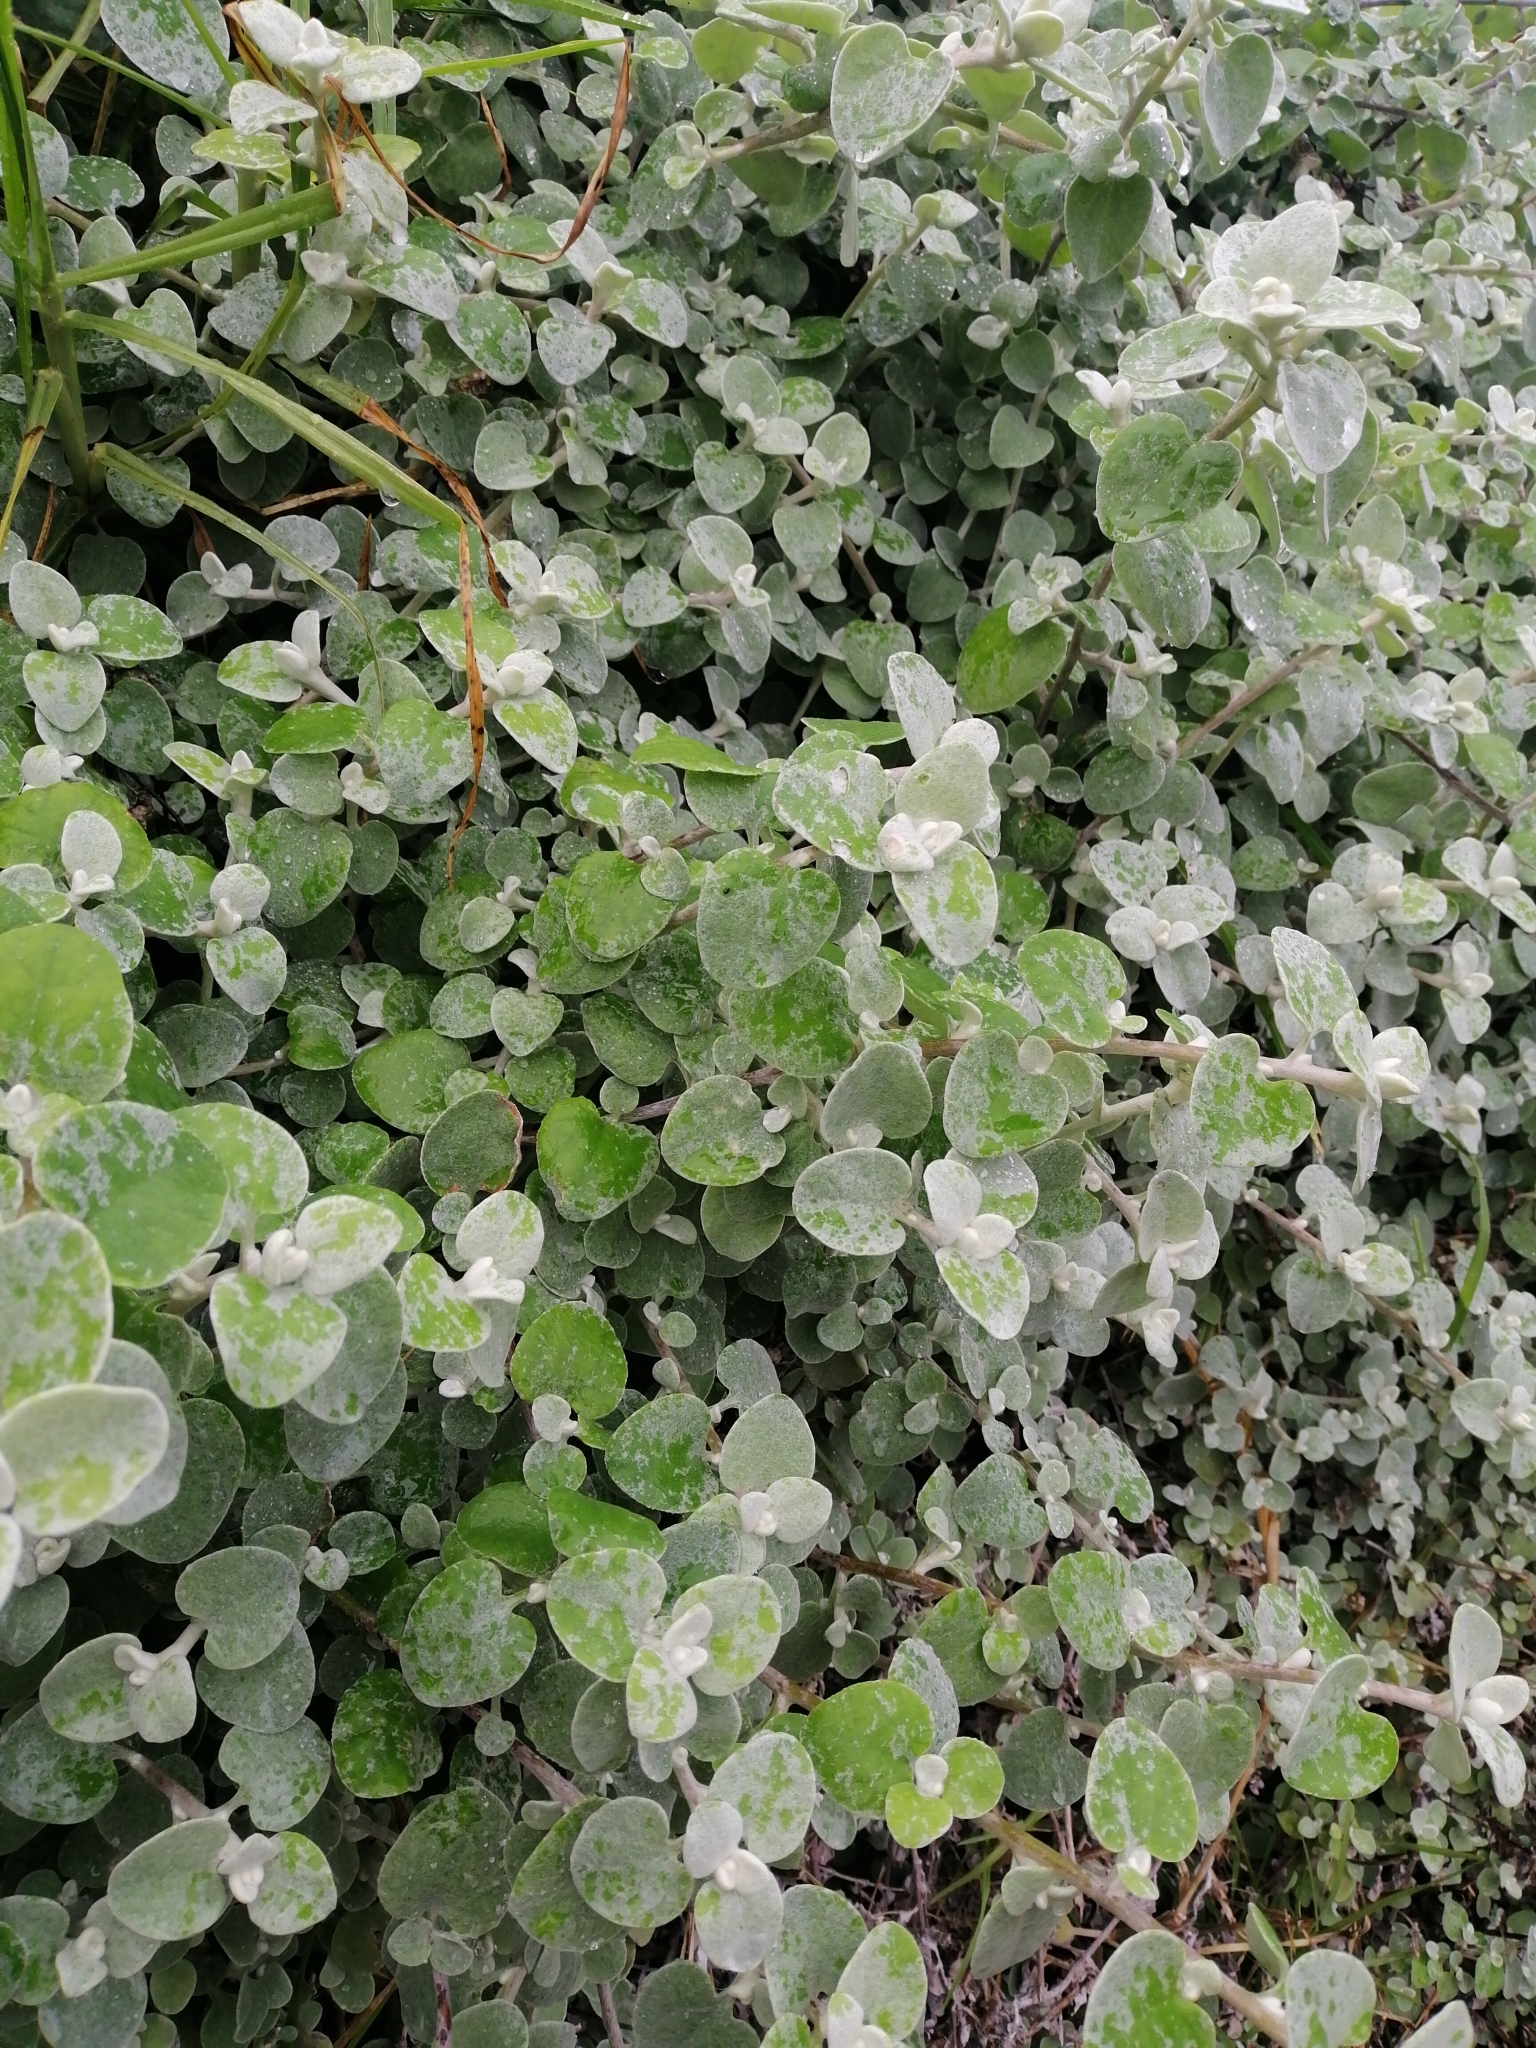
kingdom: Plantae
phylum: Tracheophyta
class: Magnoliopsida
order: Asterales
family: Asteraceae
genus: Helichrysum
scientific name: Helichrysum petiolare
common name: Licorice-plant
